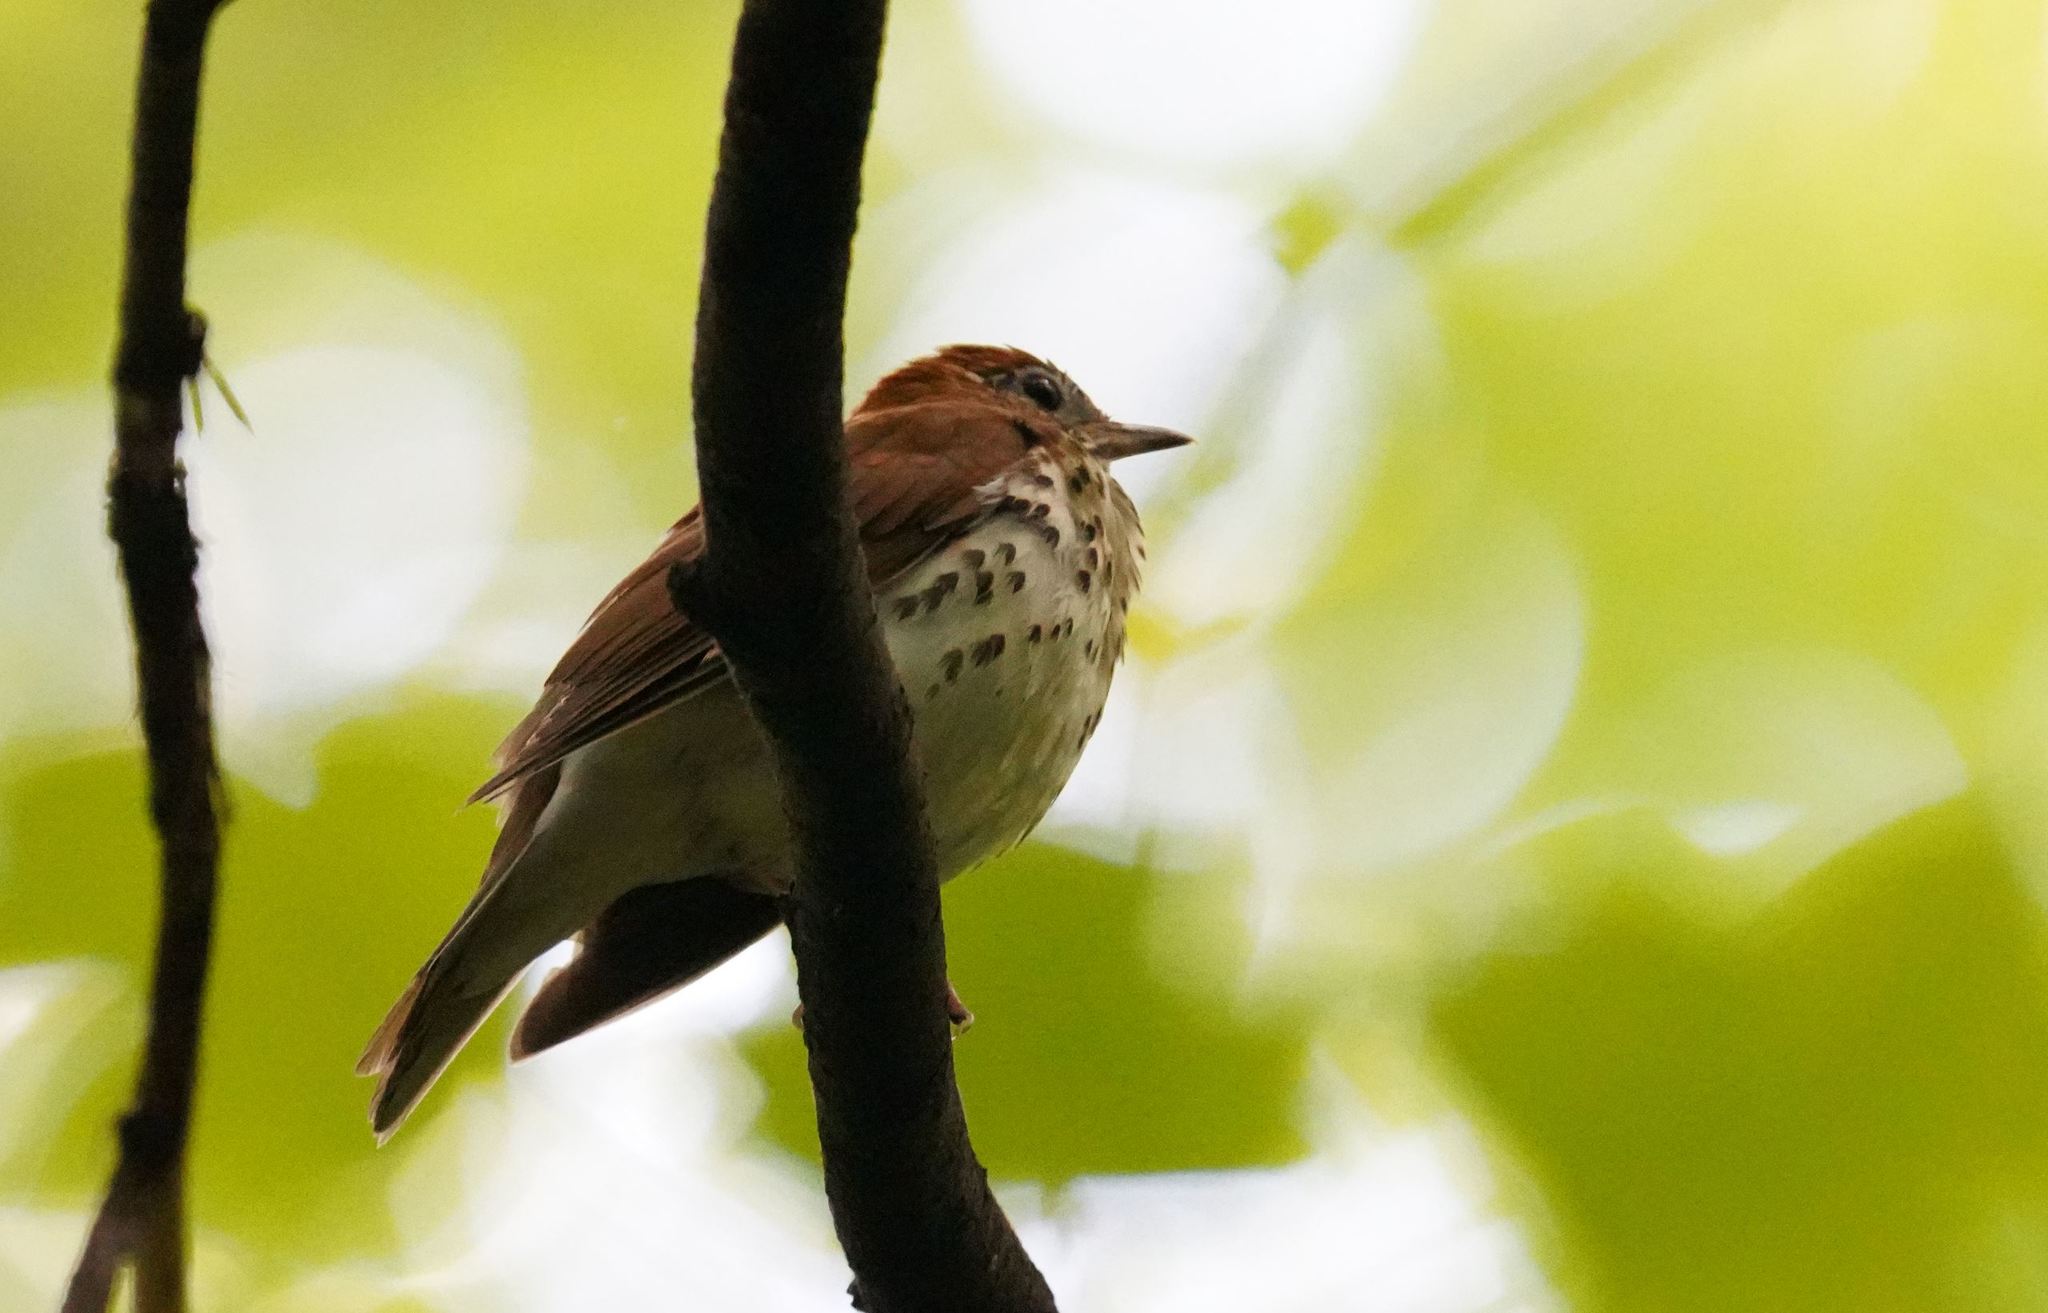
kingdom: Animalia
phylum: Chordata
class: Aves
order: Passeriformes
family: Turdidae
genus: Hylocichla
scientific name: Hylocichla mustelina
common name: Wood thrush
